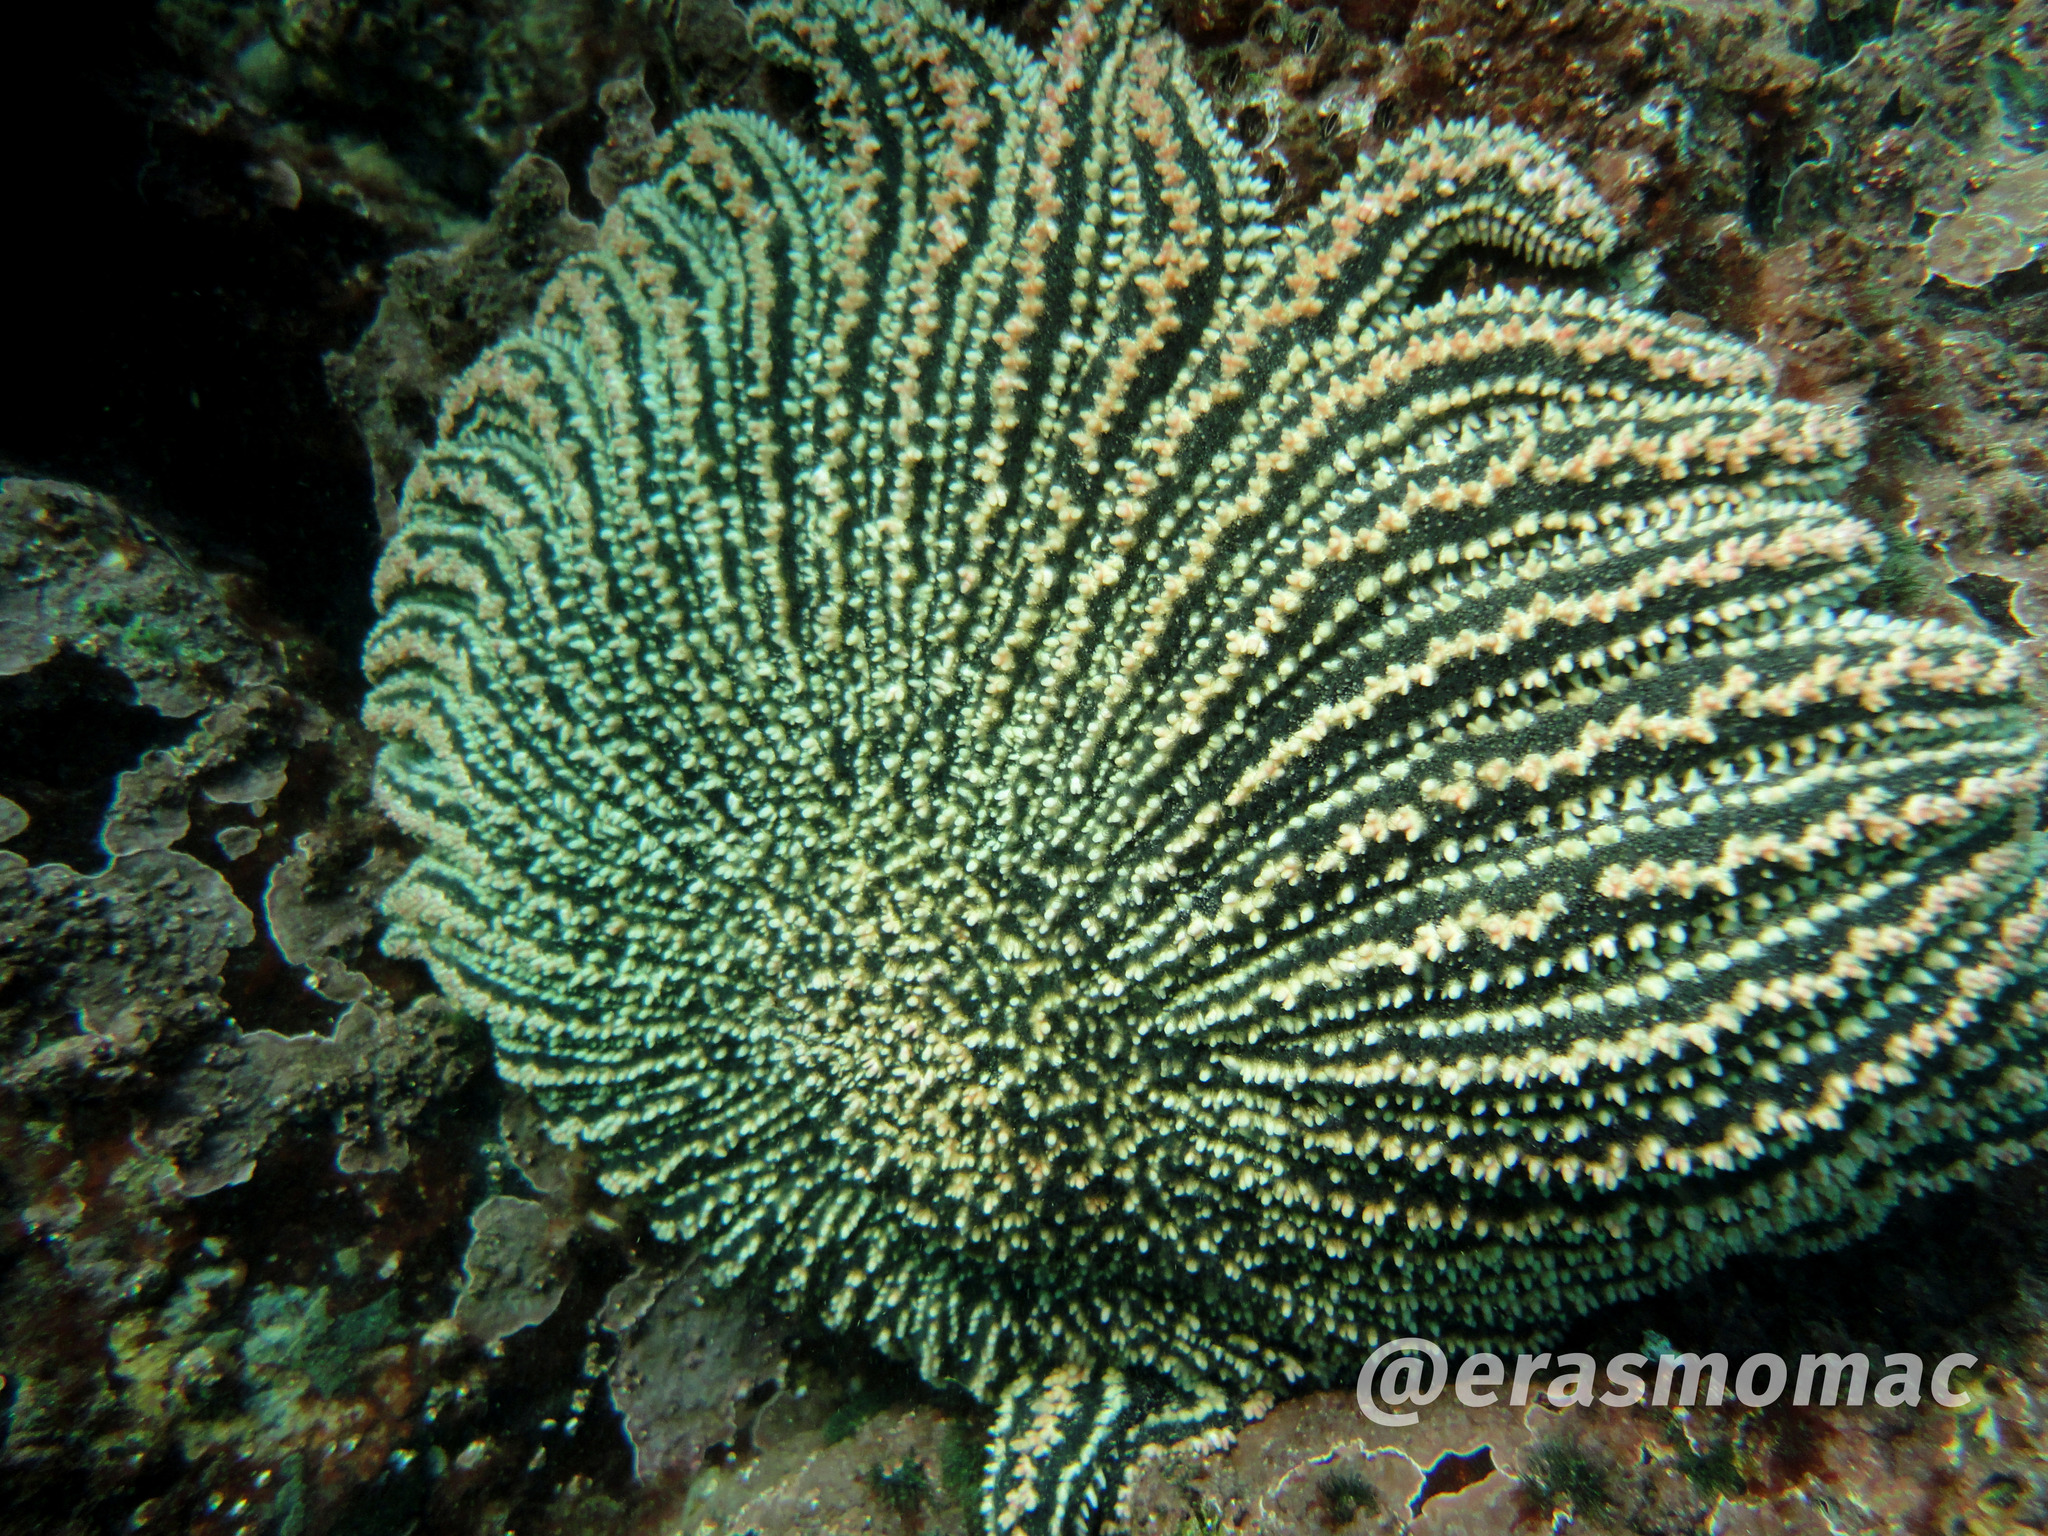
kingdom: Animalia
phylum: Echinodermata
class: Asteroidea
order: Forcipulatida
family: Heliasteridae
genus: Heliaster
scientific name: Heliaster helianthus
